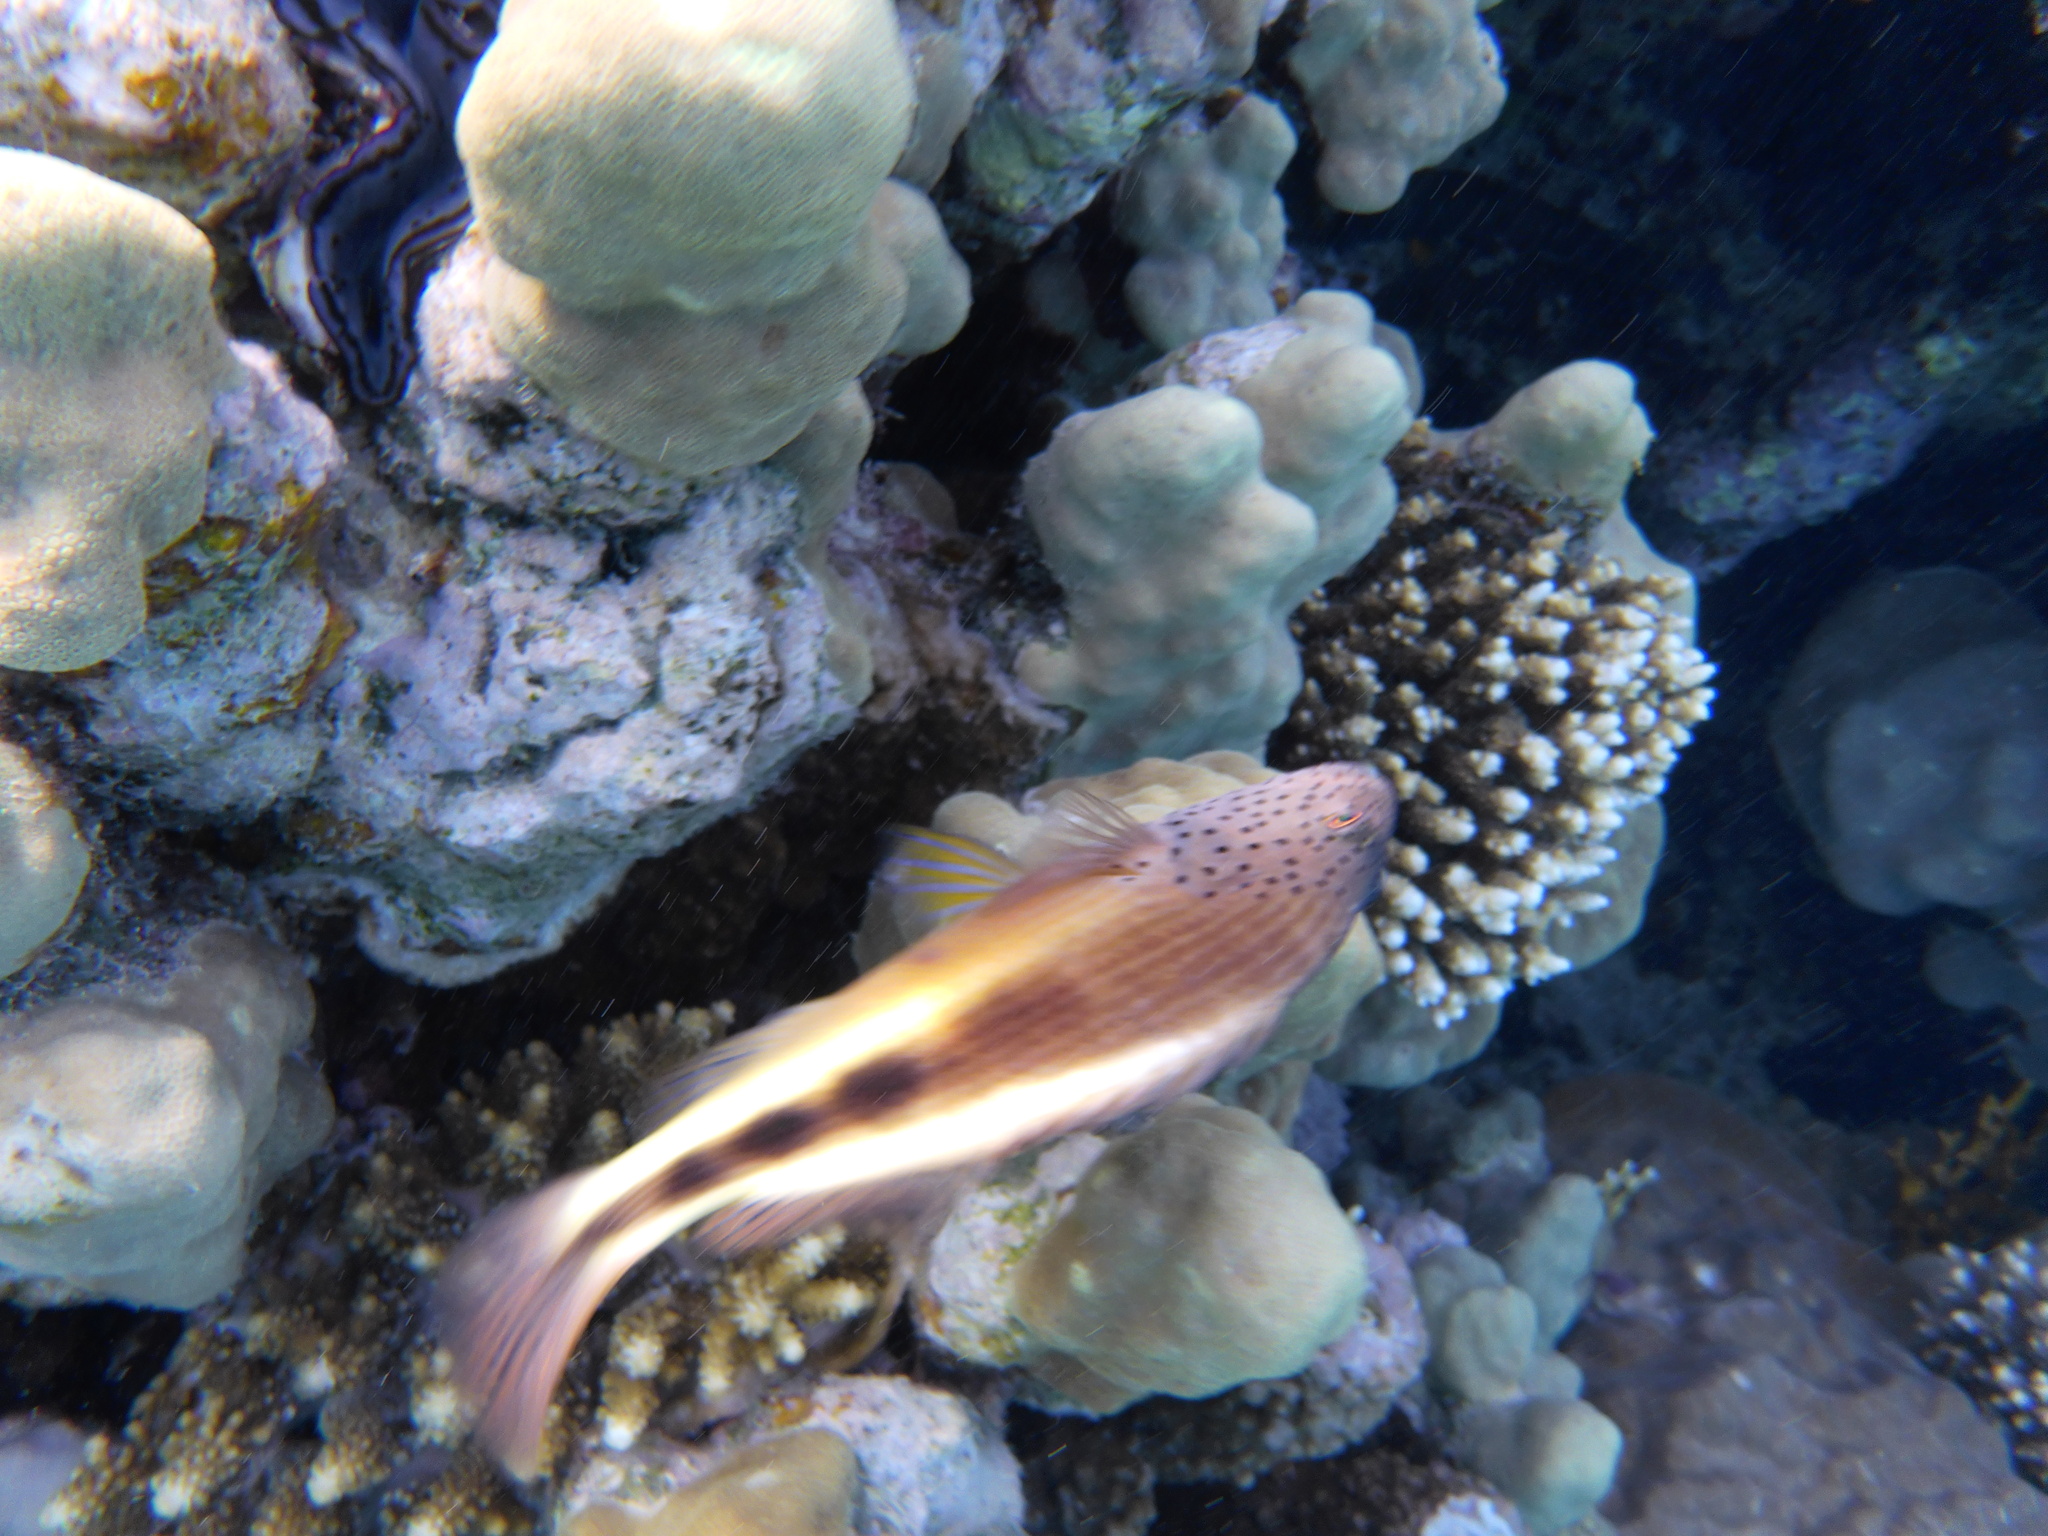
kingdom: Animalia
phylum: Chordata
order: Perciformes
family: Cirrhitidae
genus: Paracirrhites
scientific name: Paracirrhites forsteri
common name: Freckled hawkfish
